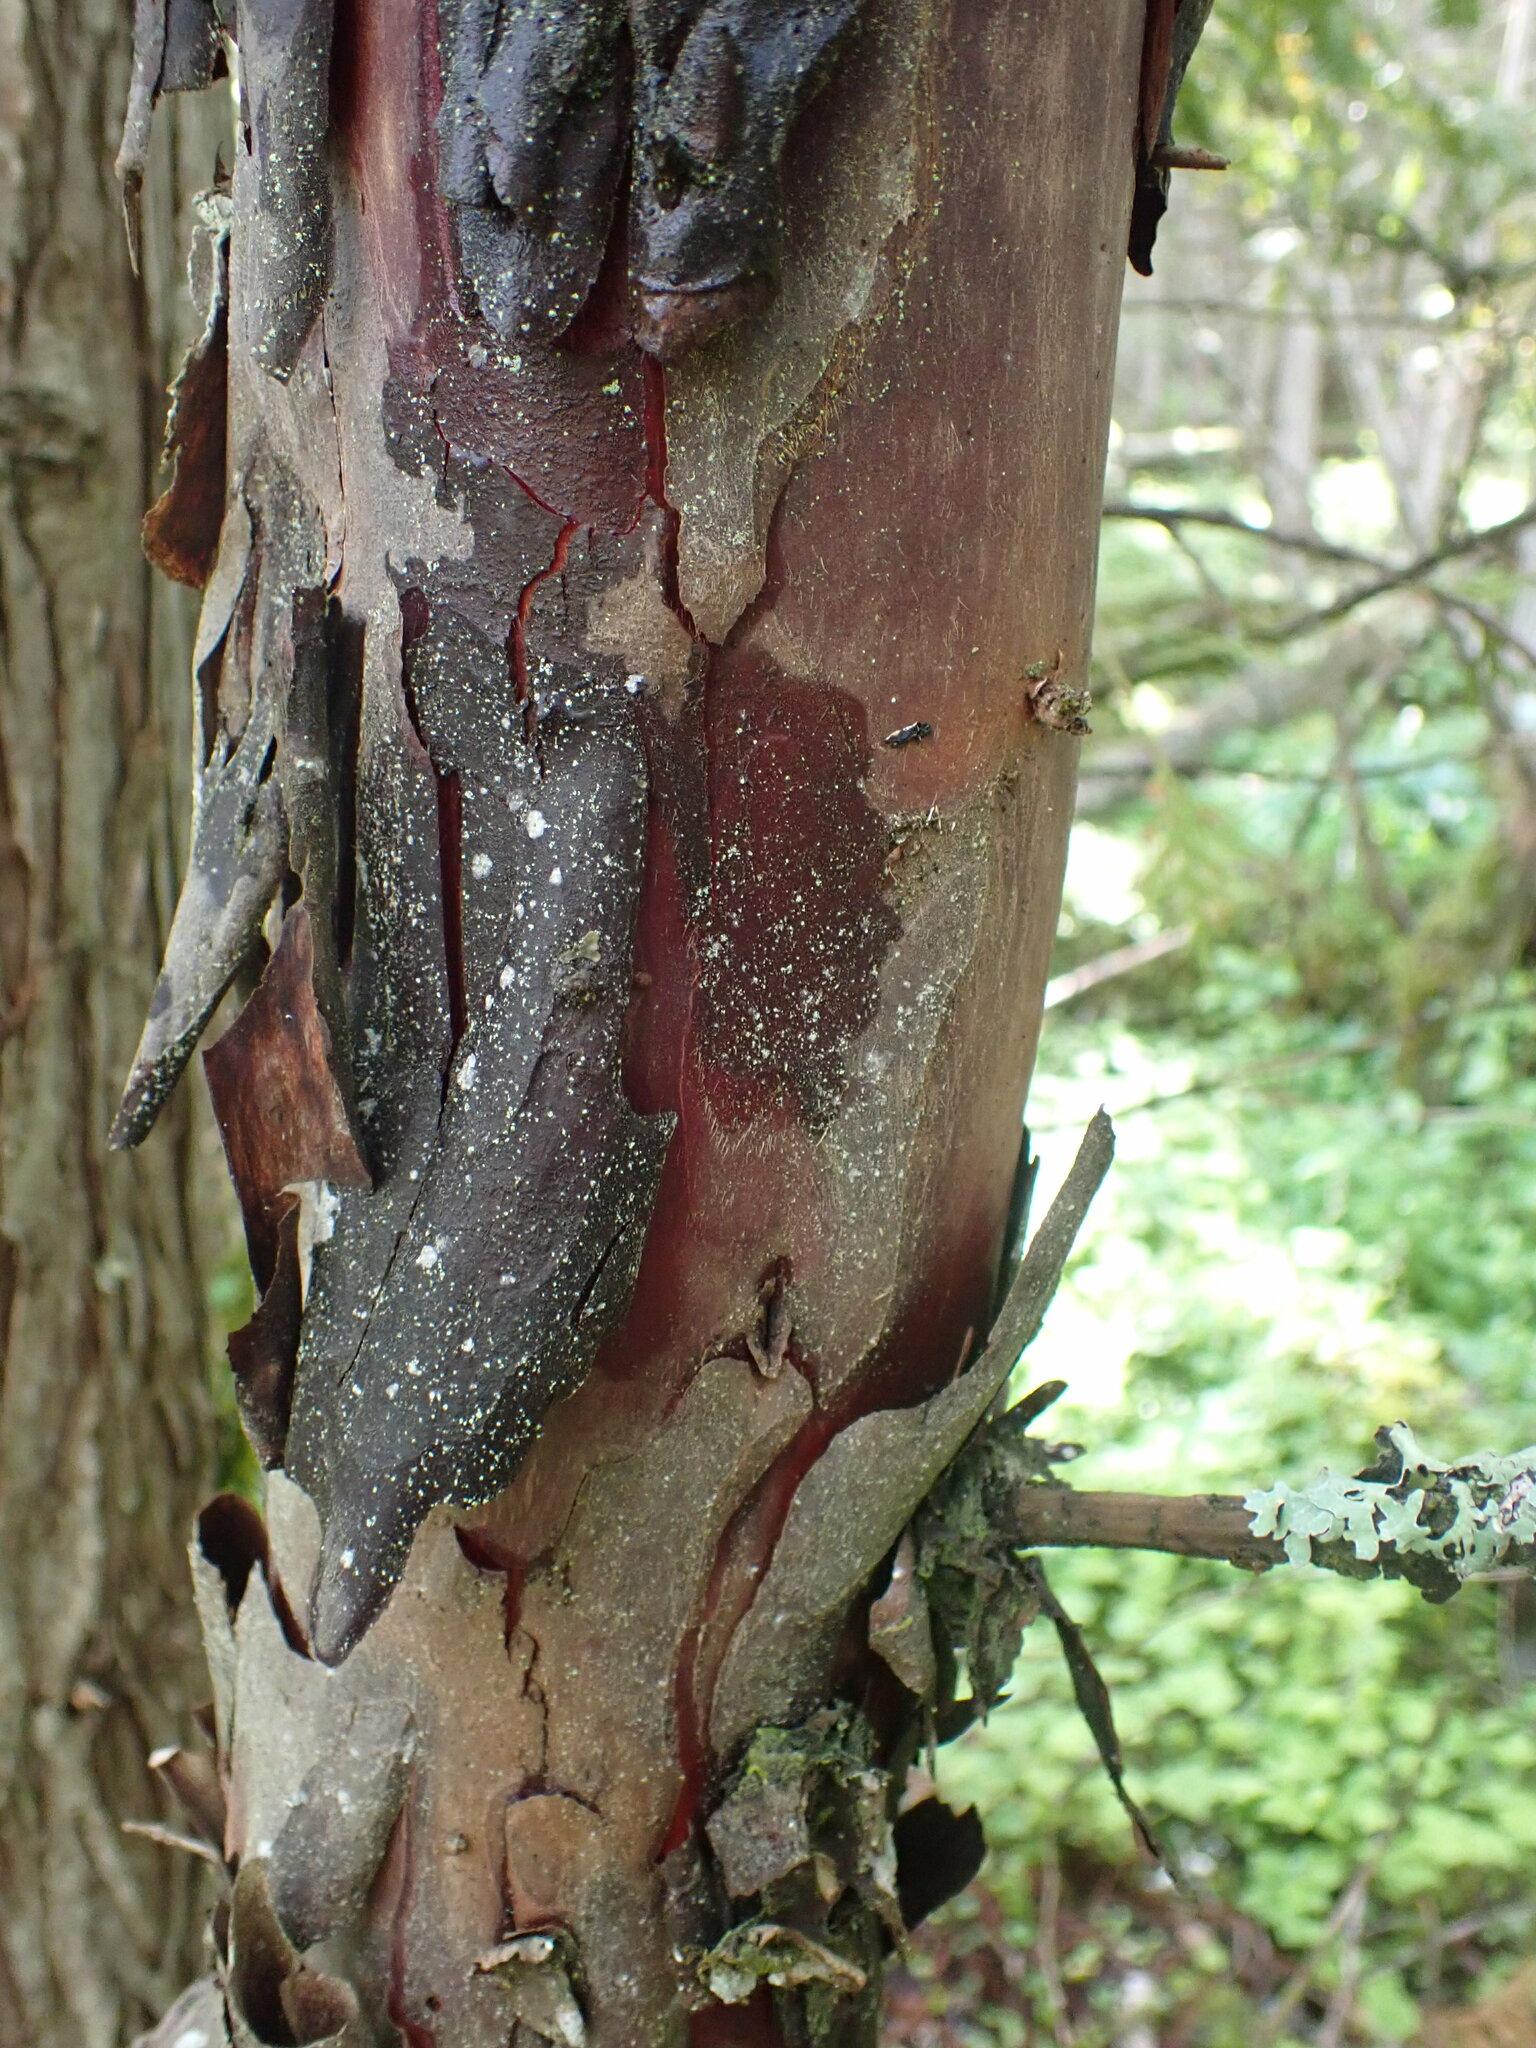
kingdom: Plantae
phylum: Tracheophyta
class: Pinopsida
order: Pinales
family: Taxaceae
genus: Taxus
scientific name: Taxus brevifolia
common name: Pacific yew
